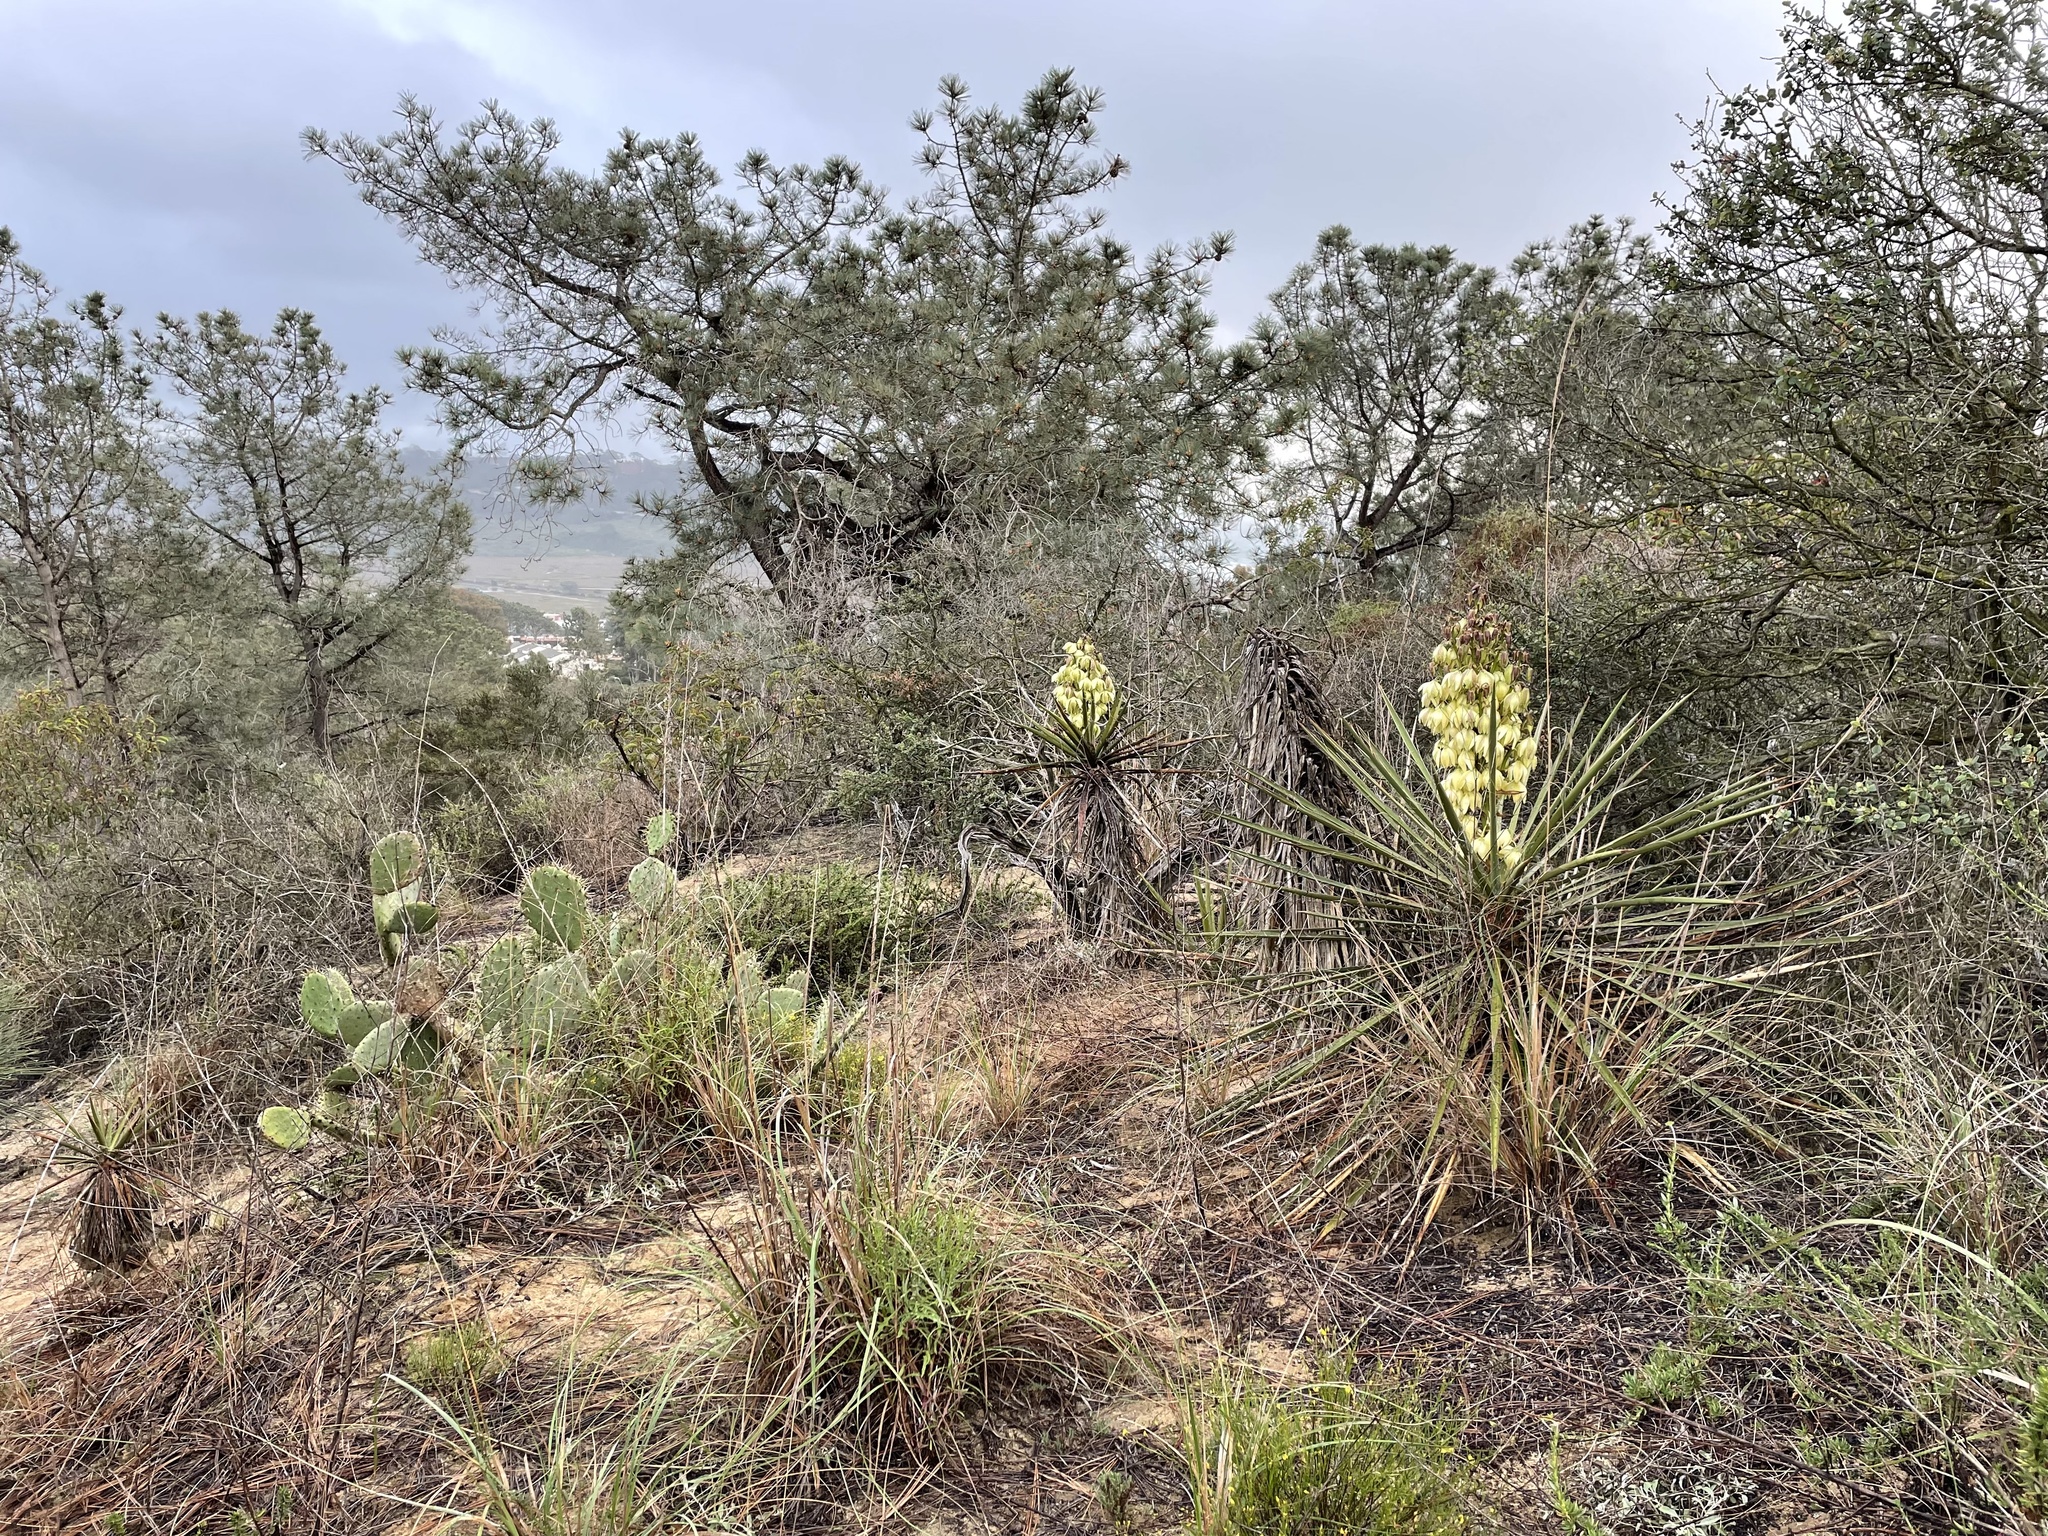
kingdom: Plantae
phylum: Tracheophyta
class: Liliopsida
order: Asparagales
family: Asparagaceae
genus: Yucca
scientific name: Yucca schidigera
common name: Mojave yucca
